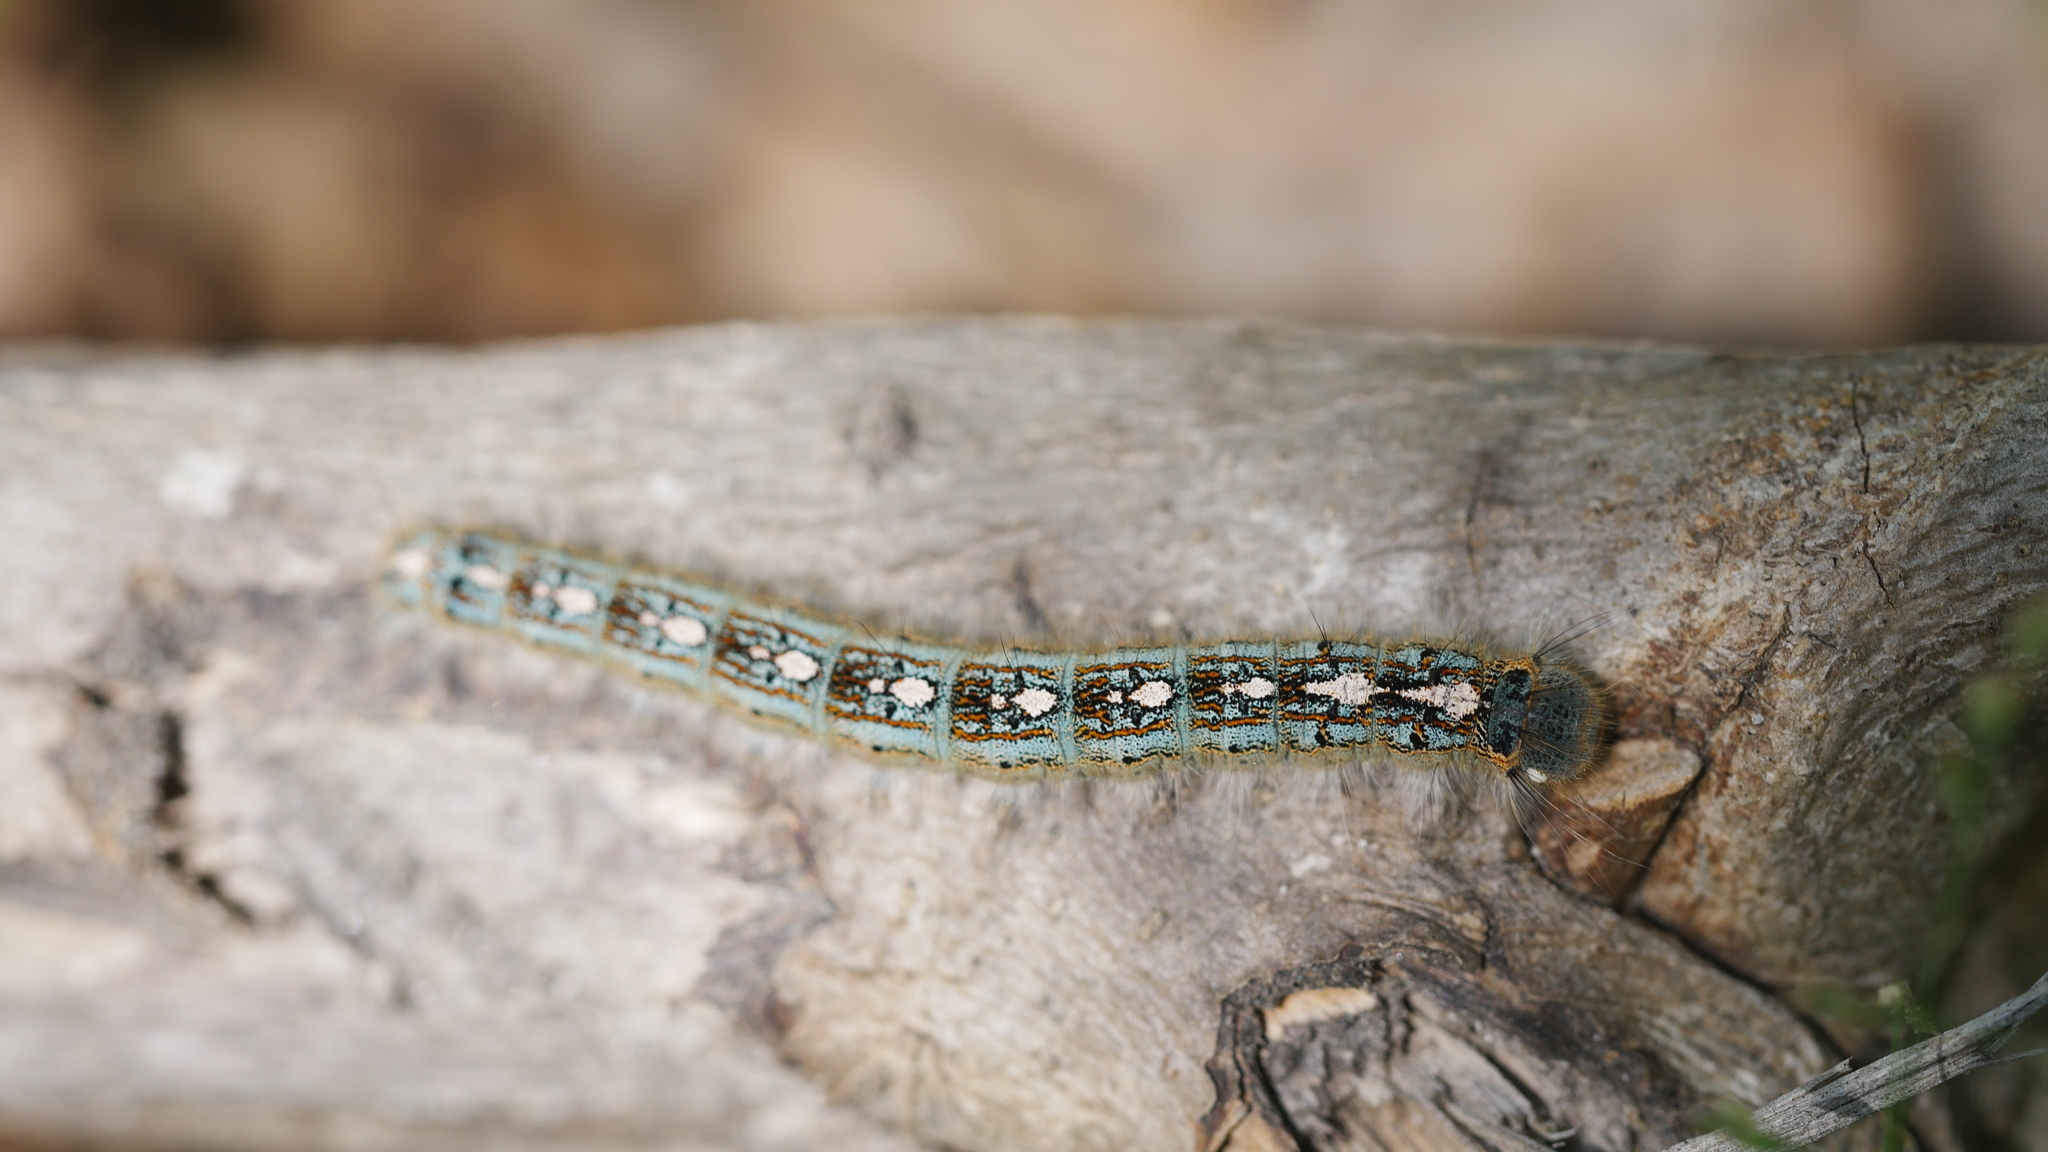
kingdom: Animalia
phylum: Arthropoda
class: Insecta
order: Lepidoptera
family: Lasiocampidae
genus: Malacosoma
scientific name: Malacosoma disstria
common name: Forest tent caterpillar
